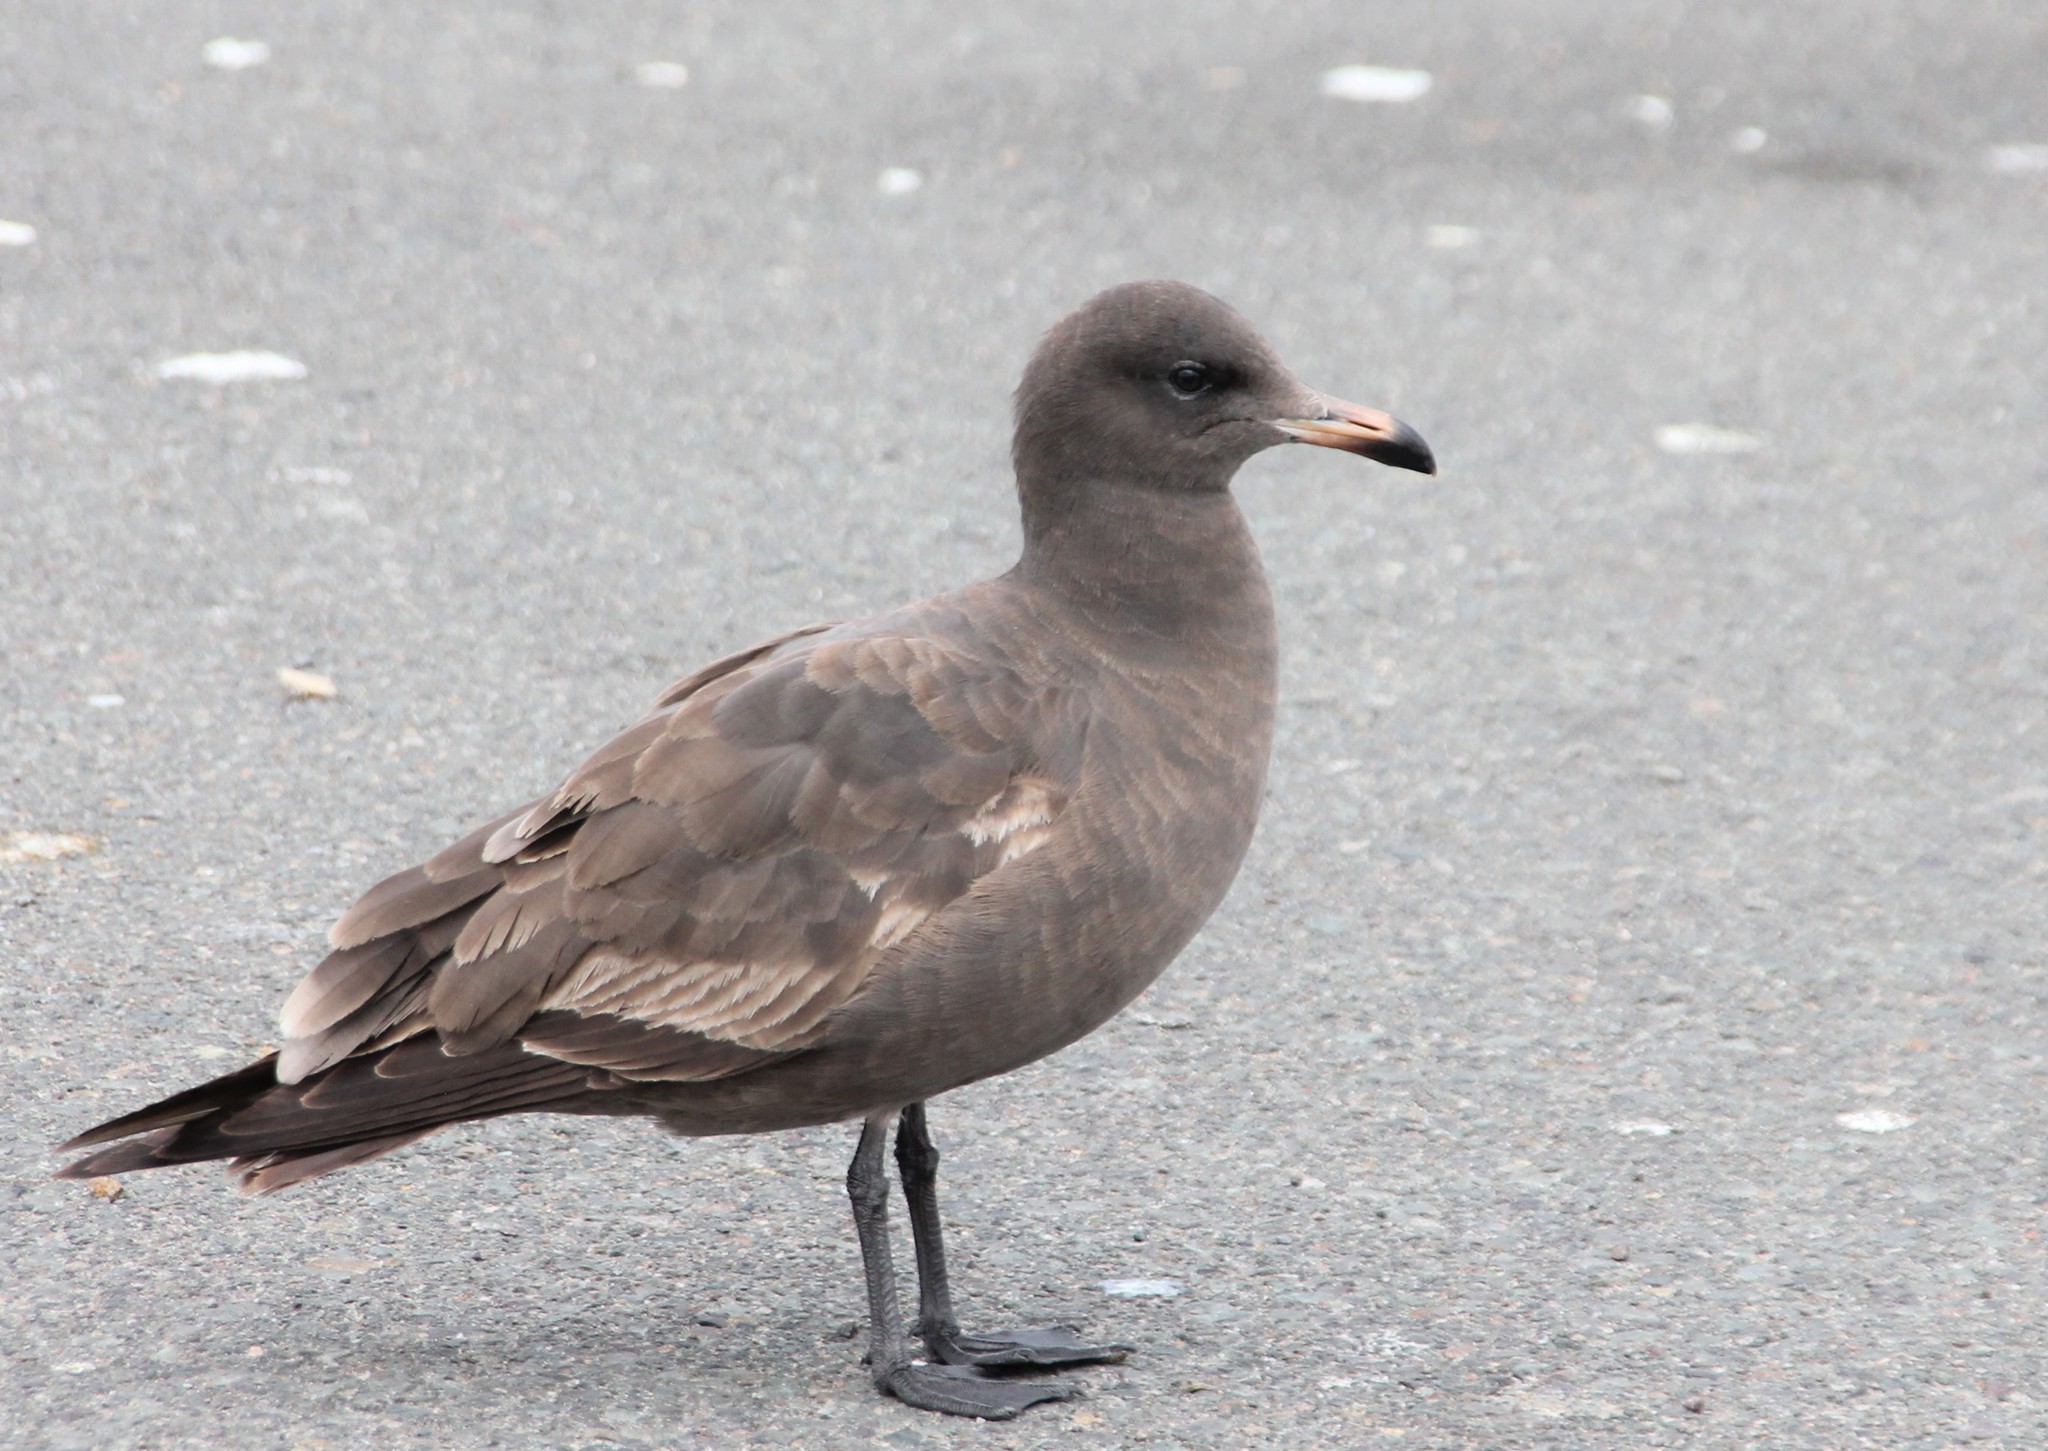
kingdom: Animalia
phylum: Chordata
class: Aves
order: Charadriiformes
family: Laridae
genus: Larus
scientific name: Larus heermanni
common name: Heermann's gull
